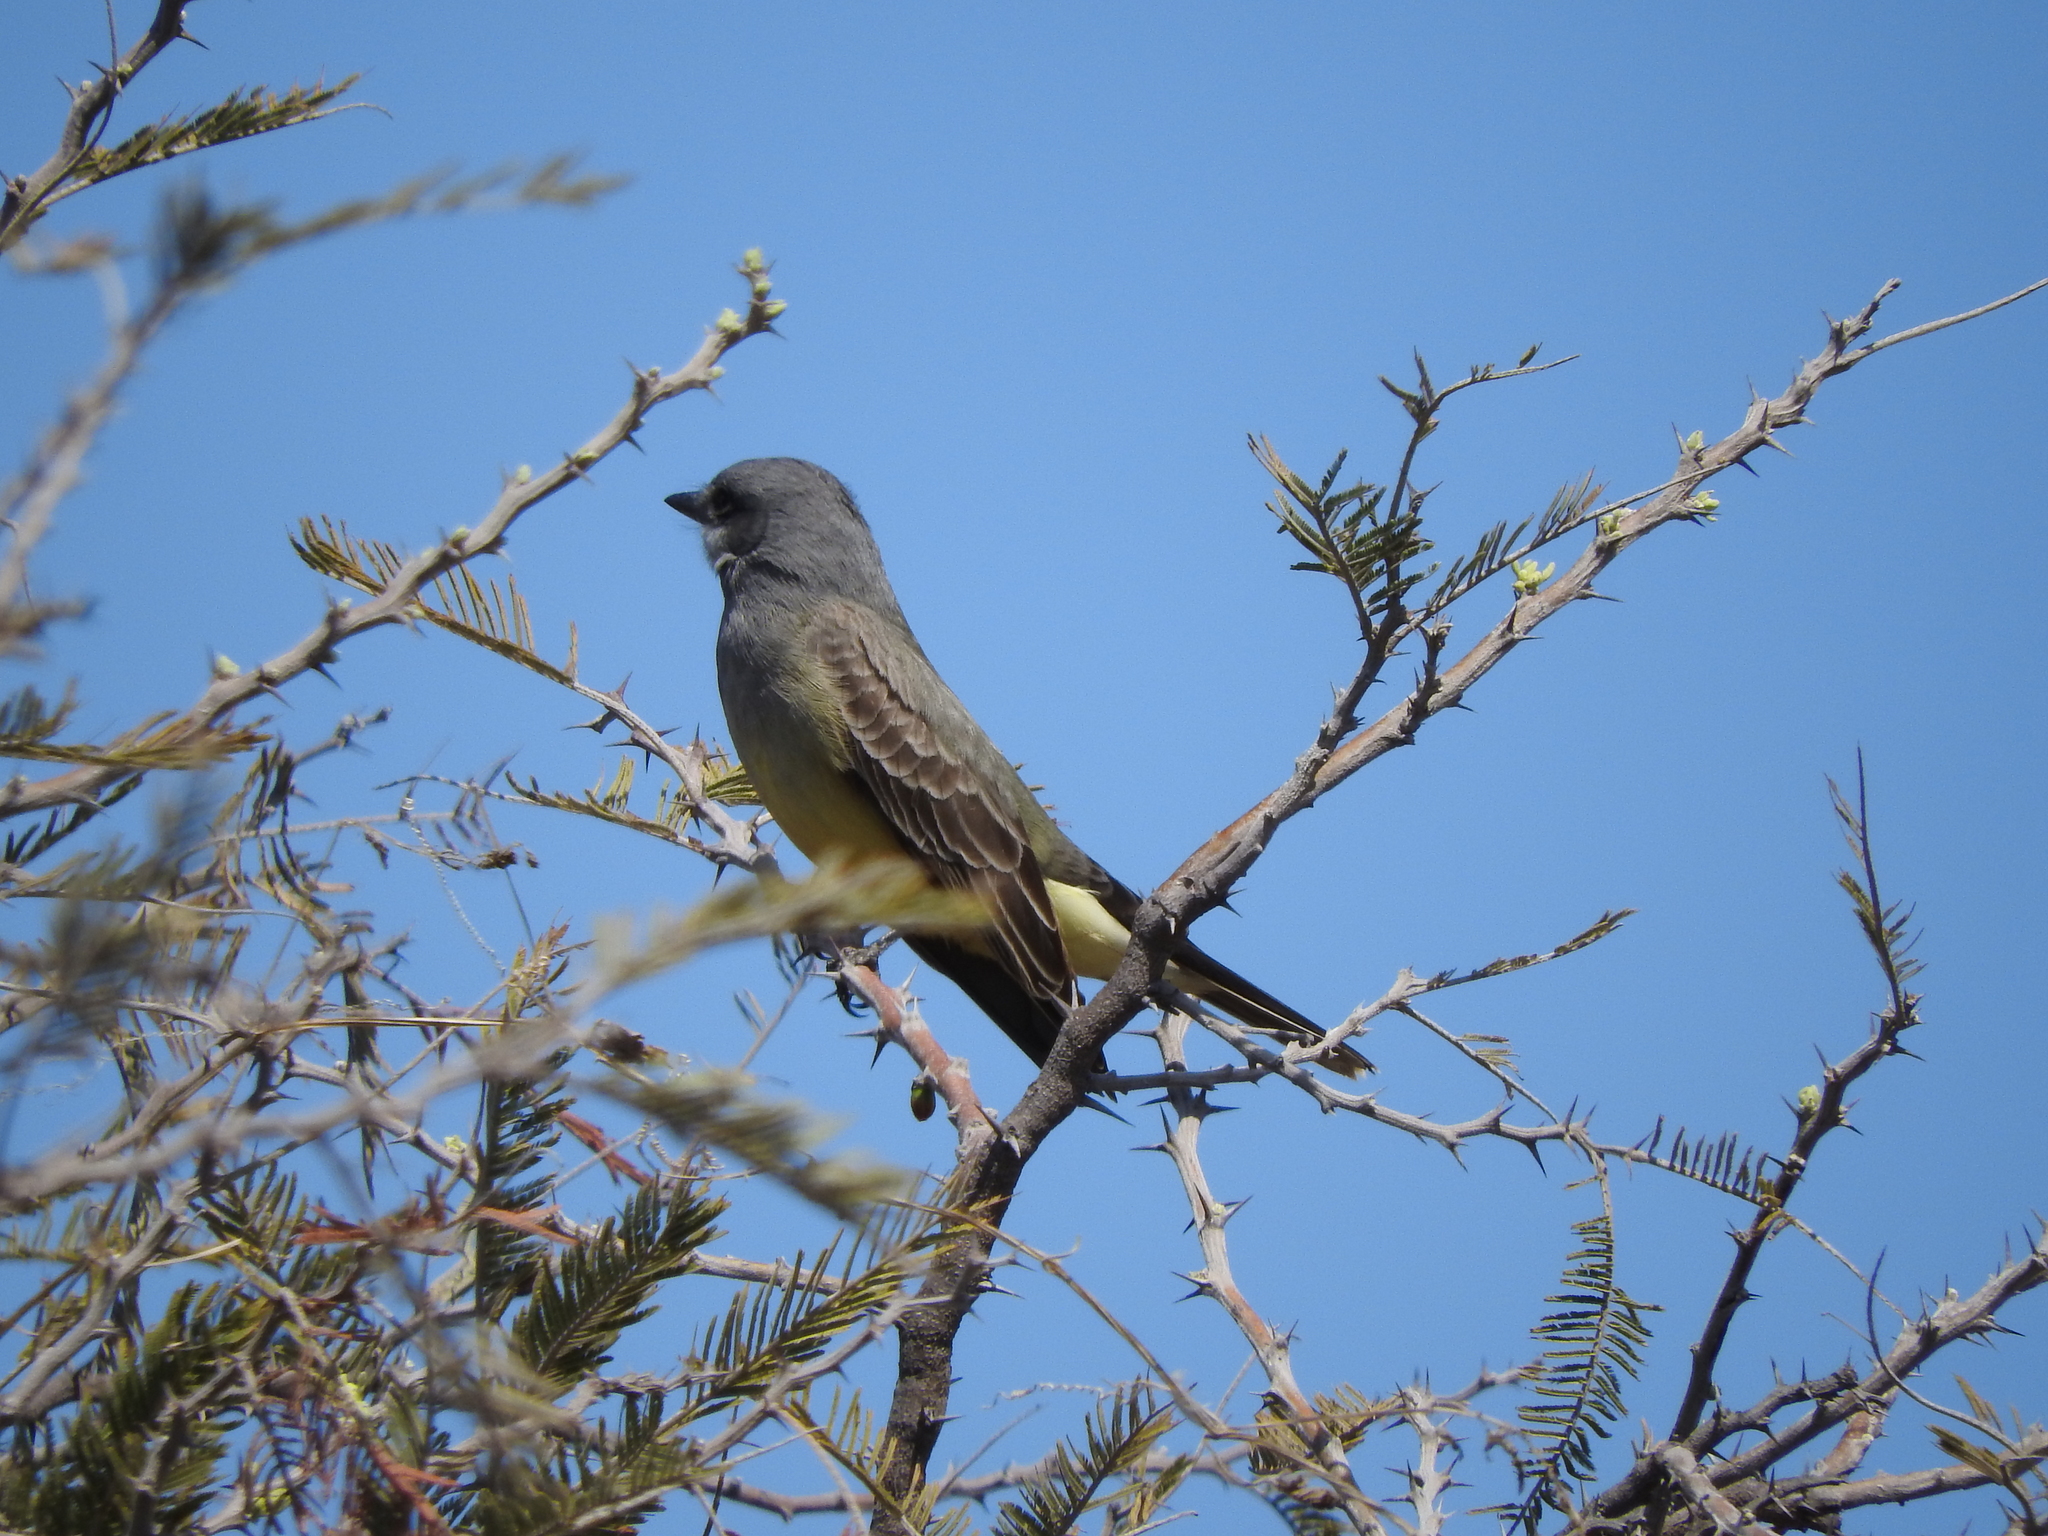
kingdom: Animalia
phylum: Chordata
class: Aves
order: Passeriformes
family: Tyrannidae
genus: Tyrannus
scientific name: Tyrannus vociferans
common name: Cassin's kingbird
